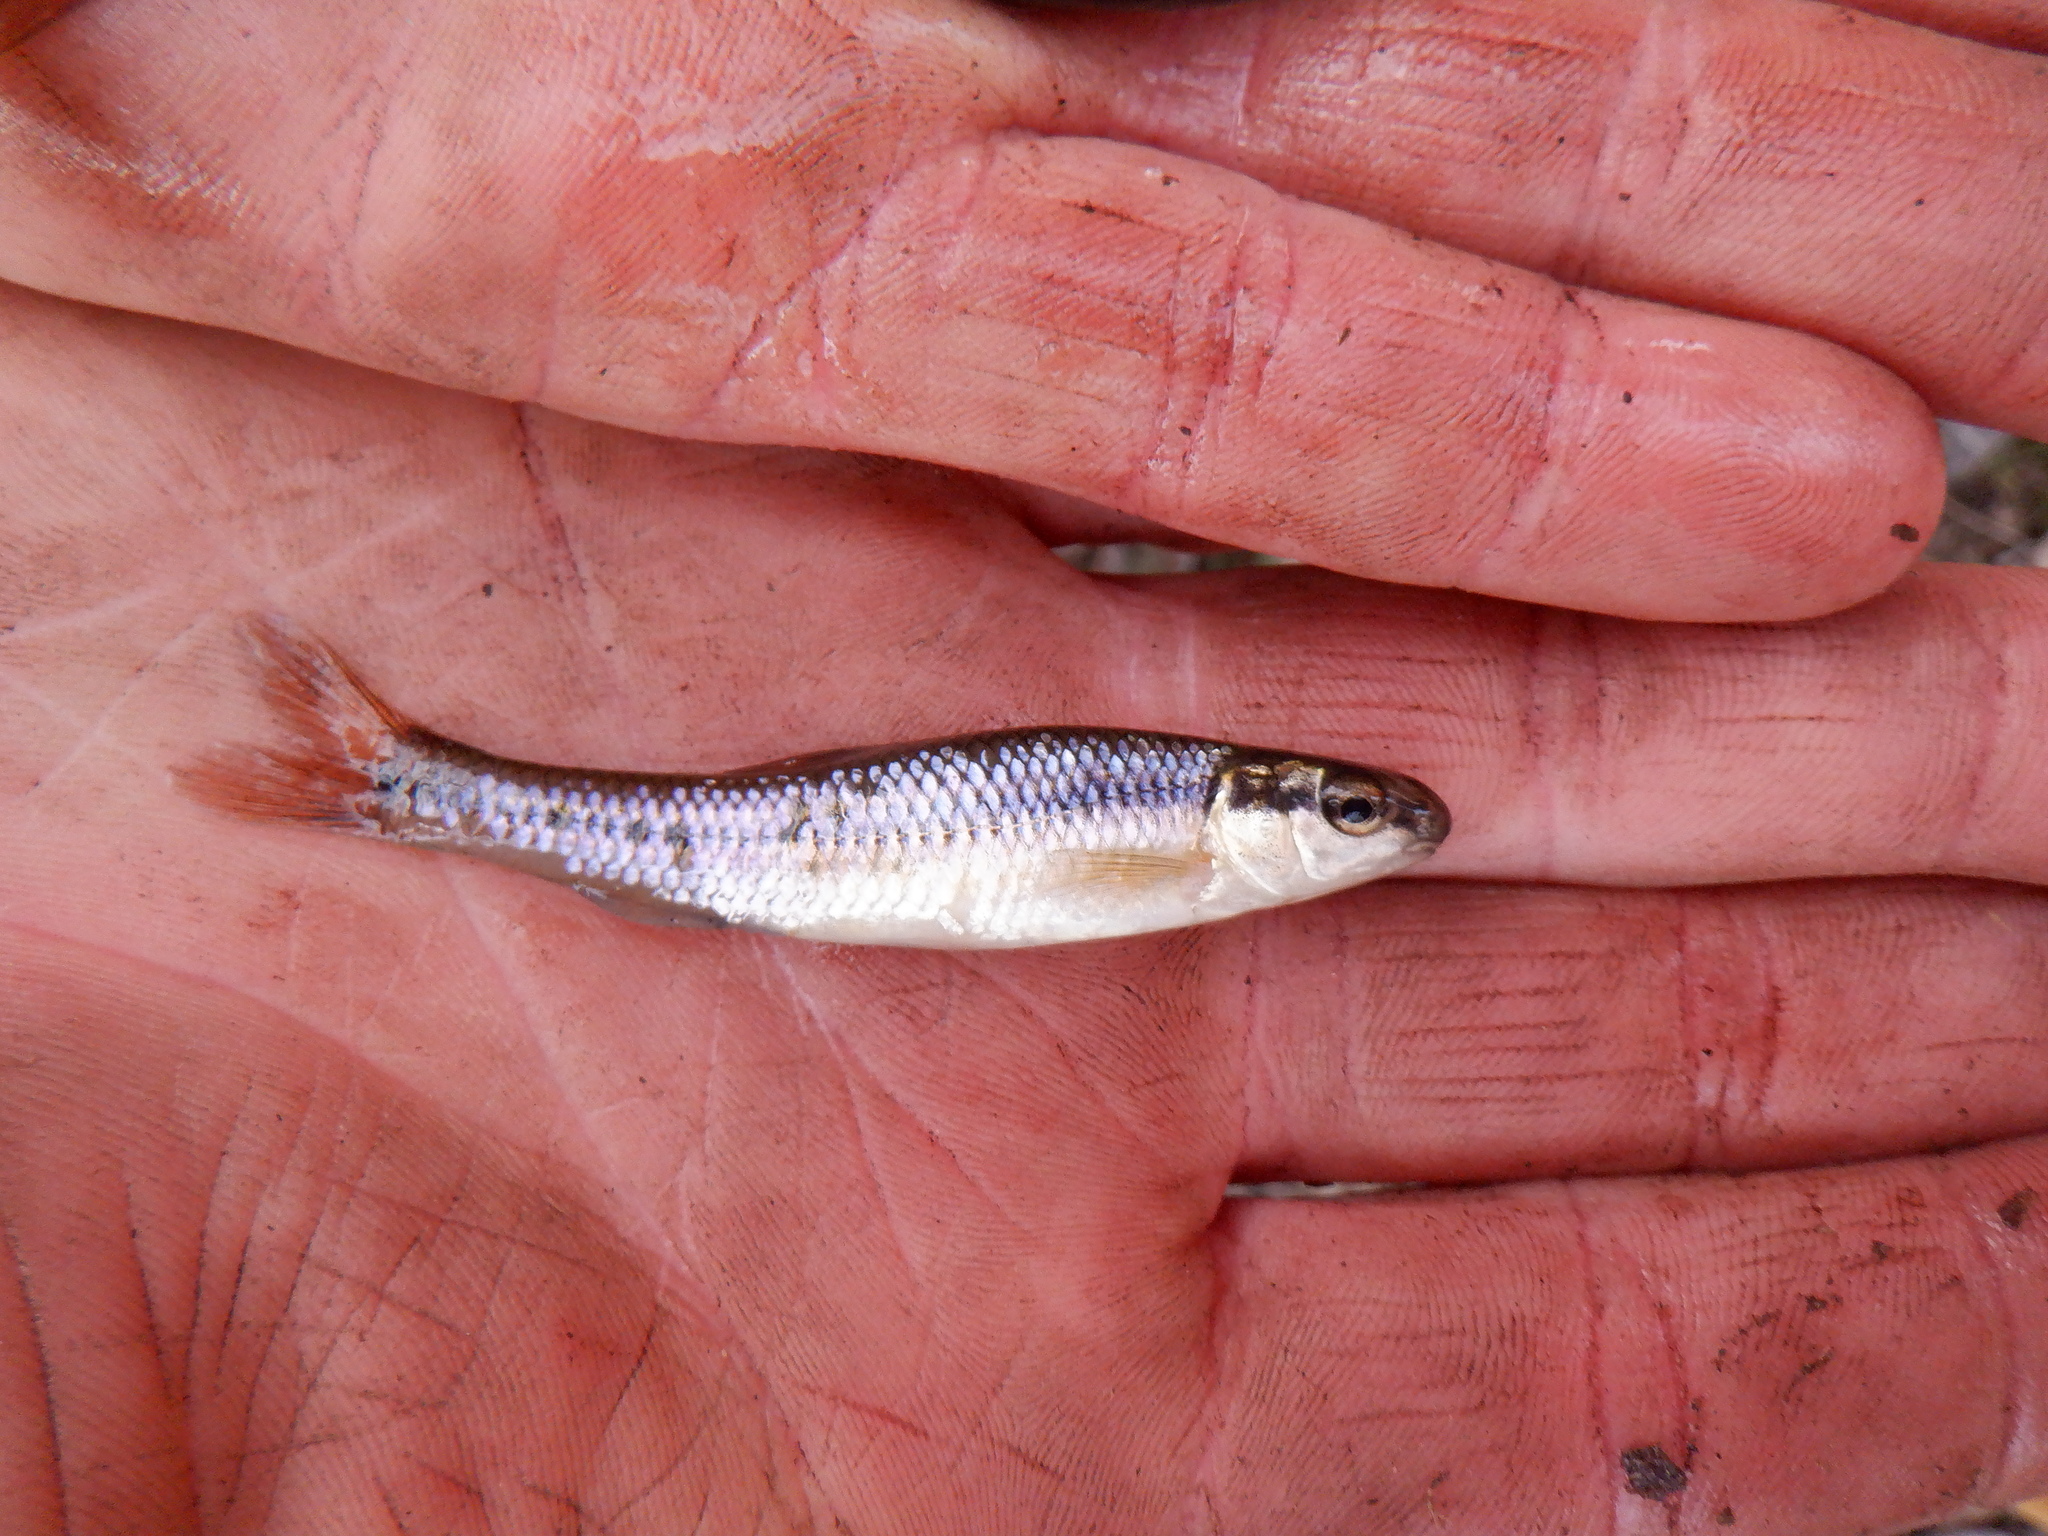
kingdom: Animalia
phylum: Chordata
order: Cypriniformes
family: Cyprinidae
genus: Pimephales
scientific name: Pimephales notatus
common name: Bluntnose minnow
